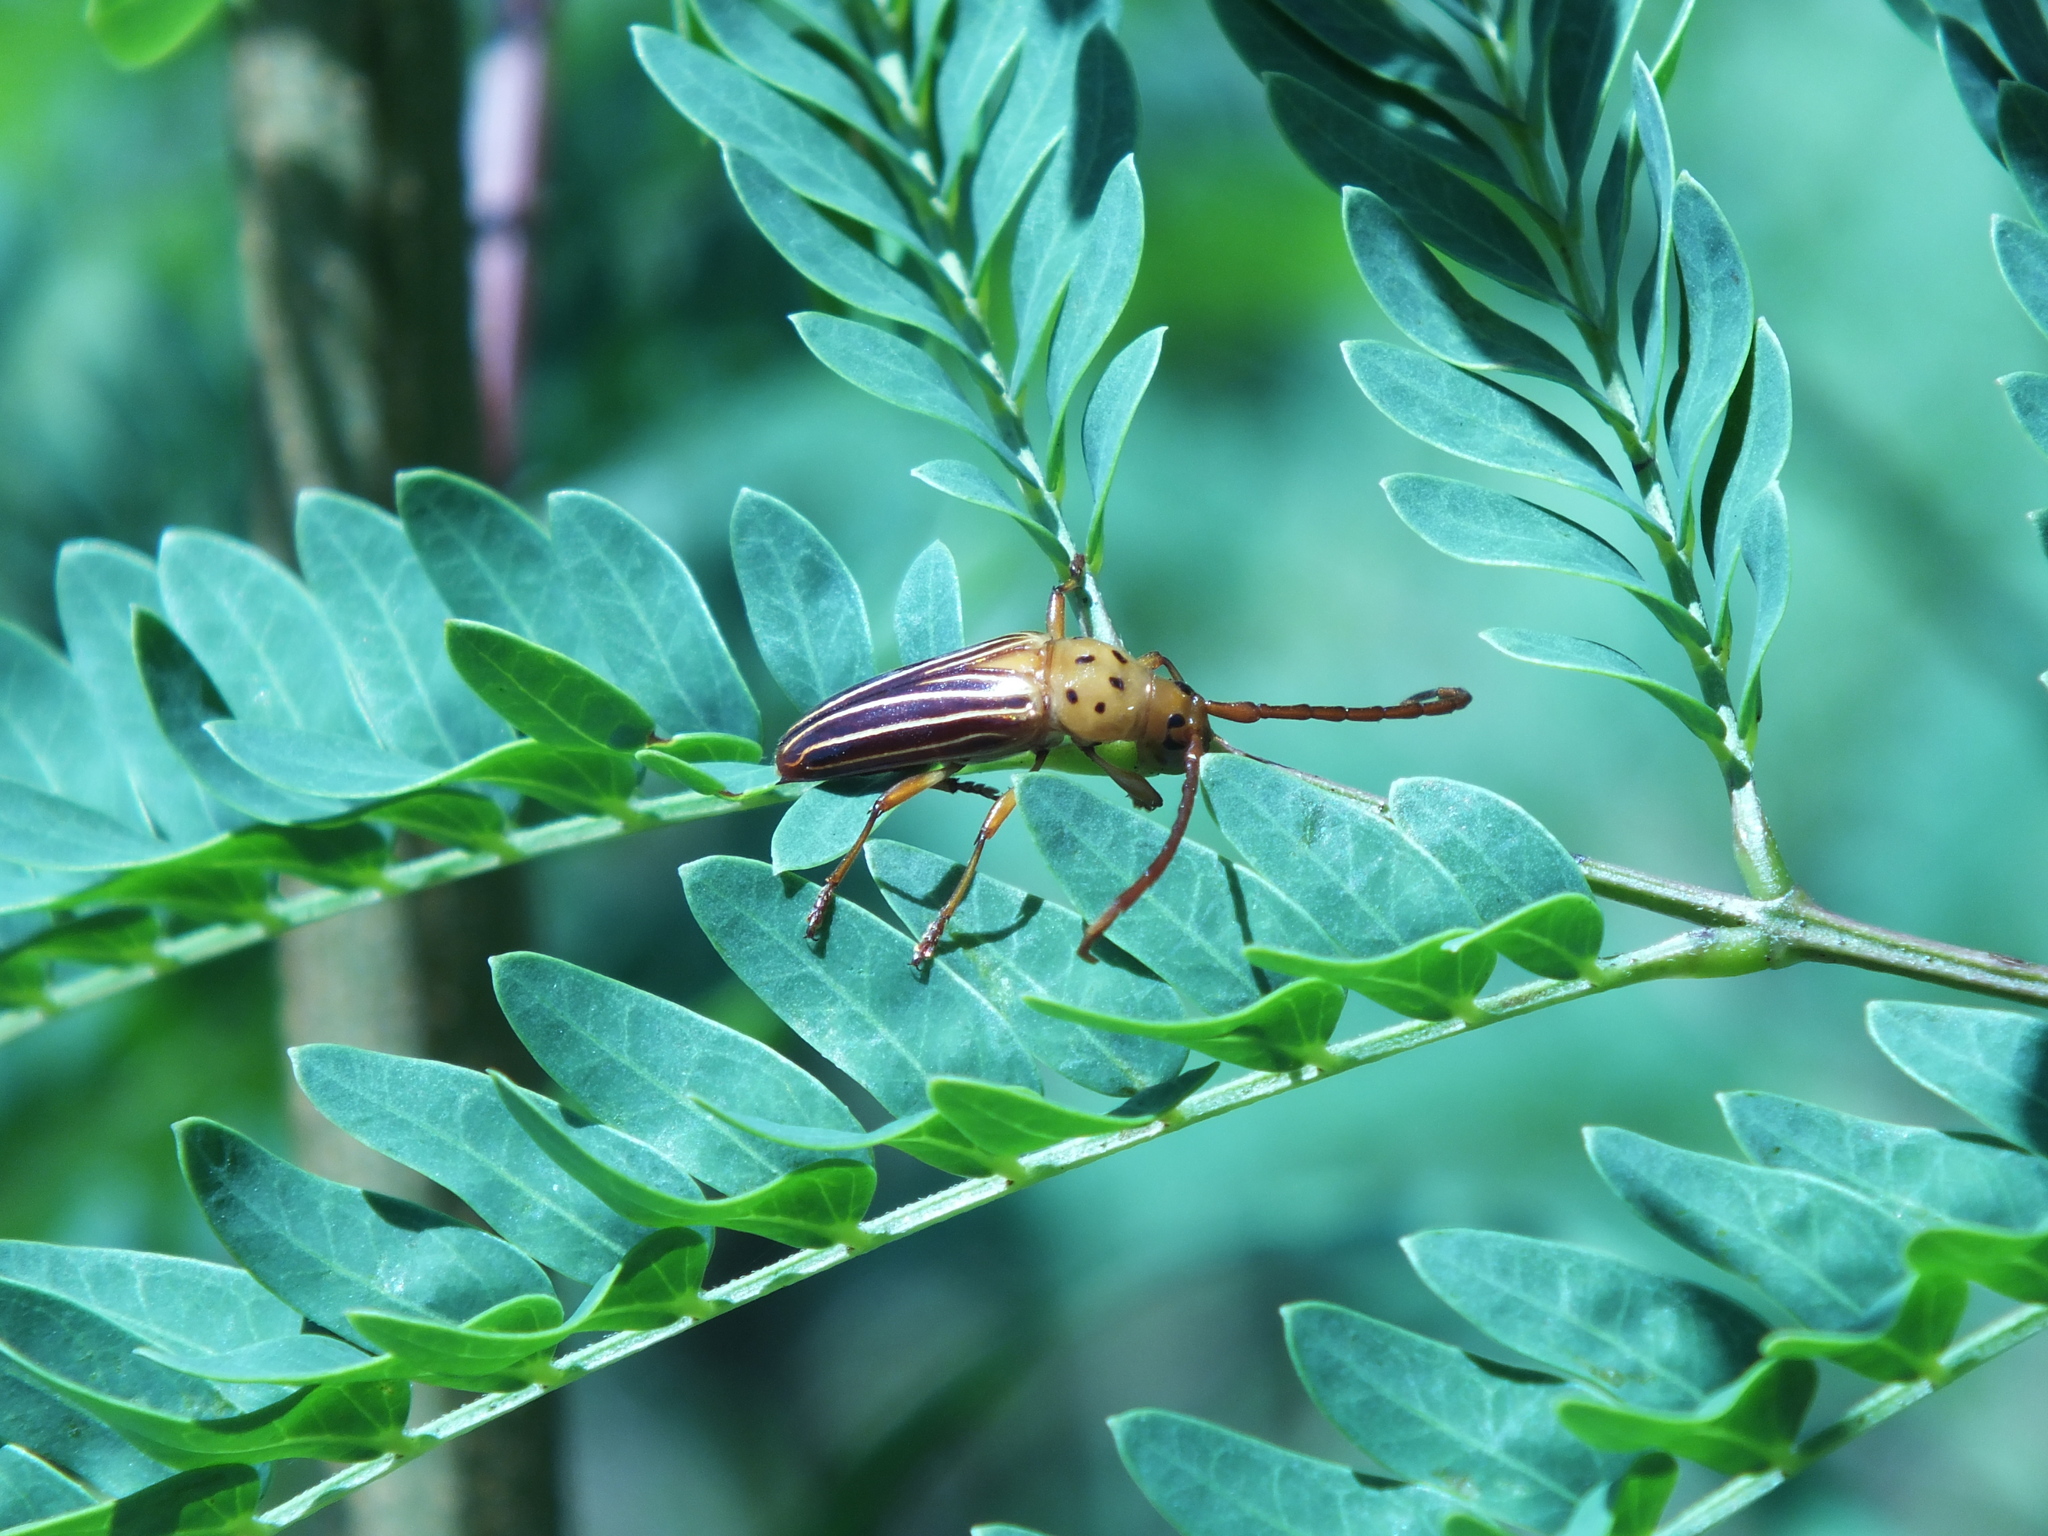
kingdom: Animalia
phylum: Arthropoda
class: Insecta
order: Coleoptera
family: Cerambycidae
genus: Oxymerus
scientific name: Oxymerus aculeatus
